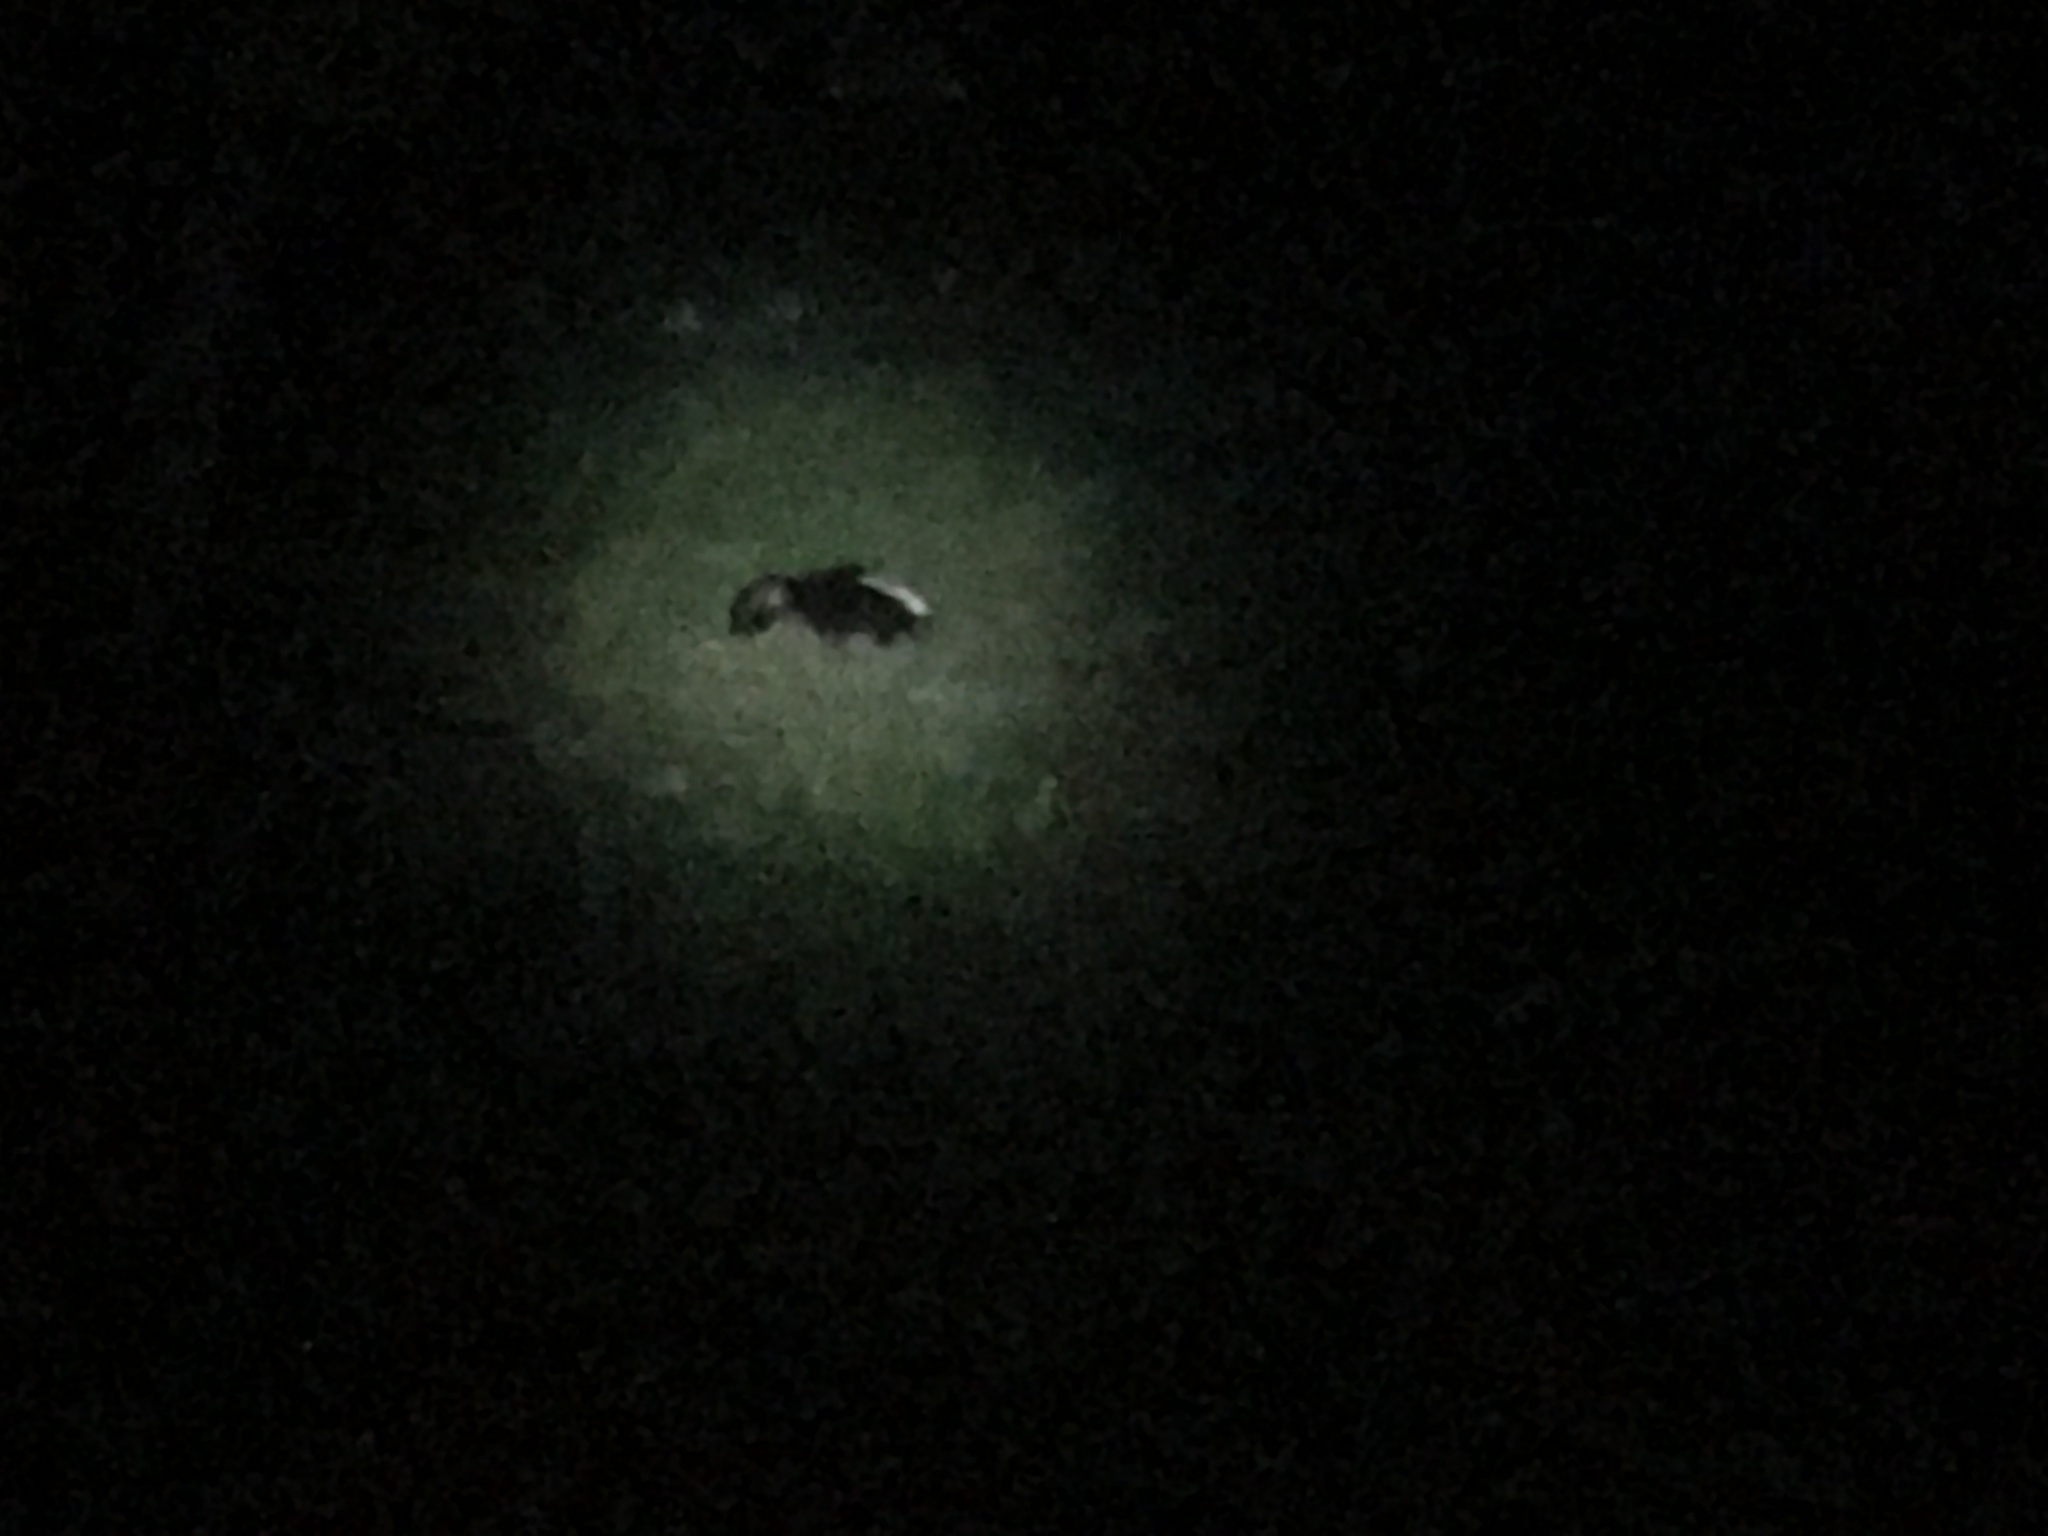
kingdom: Animalia
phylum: Chordata
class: Mammalia
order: Carnivora
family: Mephitidae
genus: Mephitis
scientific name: Mephitis mephitis
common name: Striped skunk
